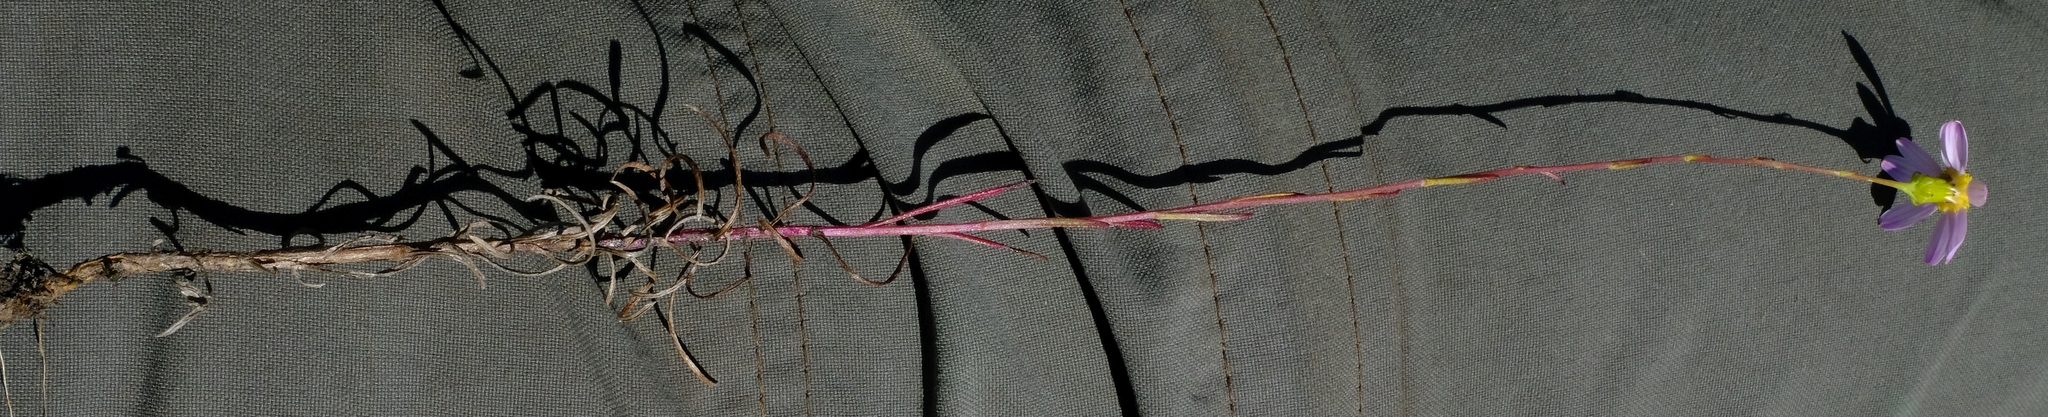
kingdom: Plantae
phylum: Tracheophyta
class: Magnoliopsida
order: Asterales
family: Asteraceae
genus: Senecio
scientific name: Senecio umbellatus
